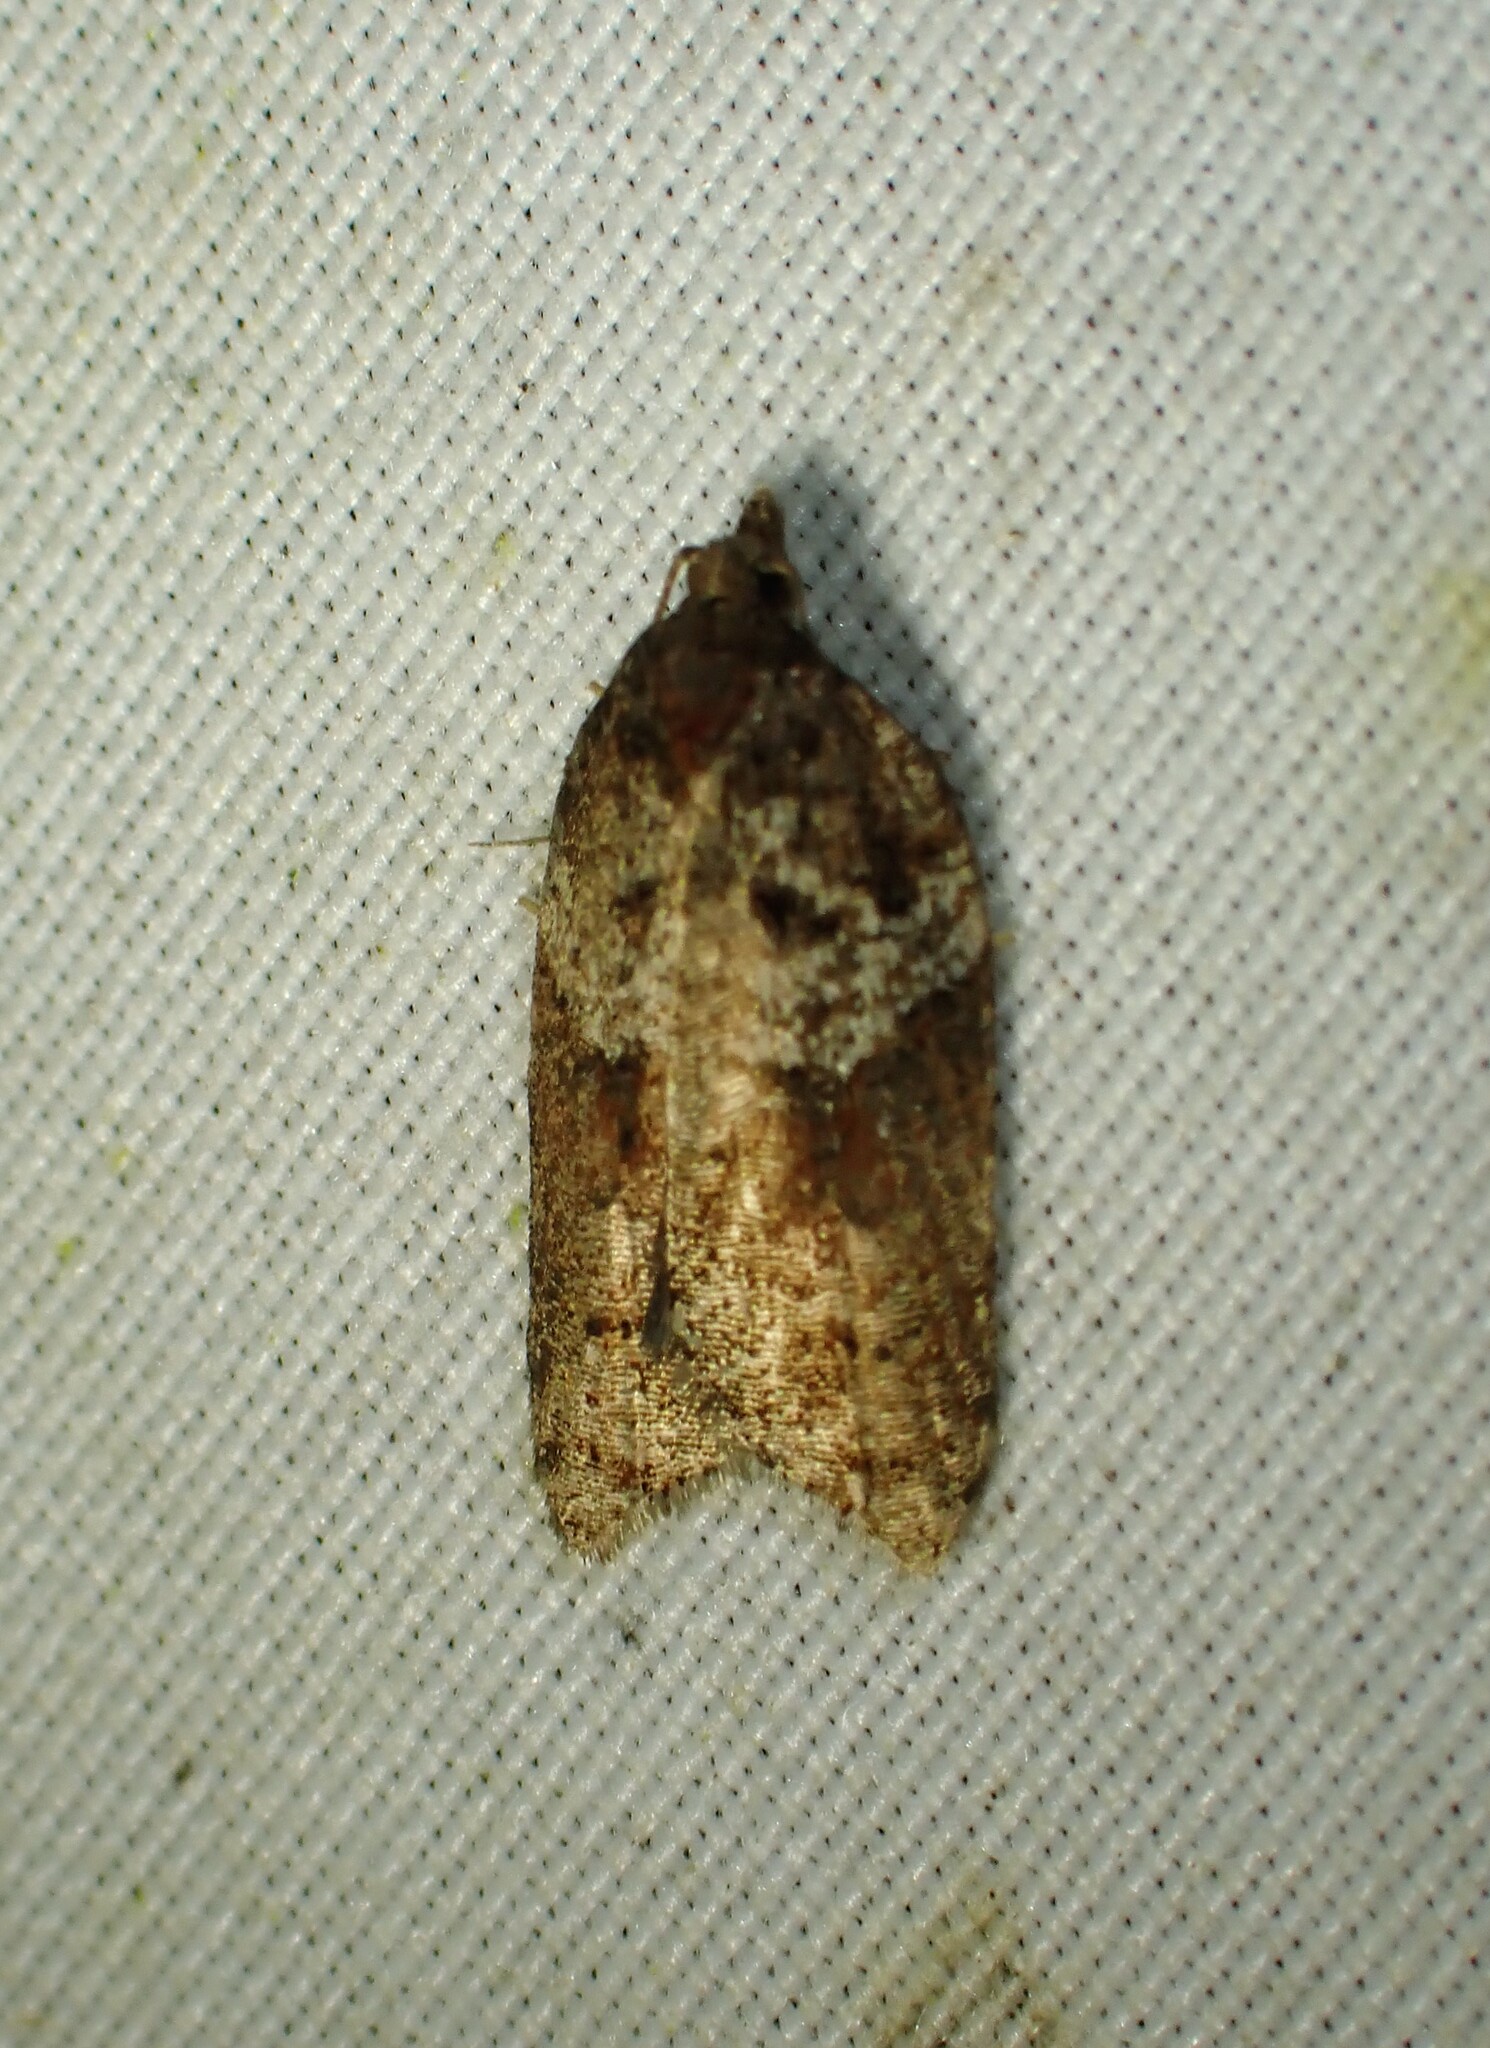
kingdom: Animalia
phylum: Arthropoda
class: Insecta
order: Lepidoptera
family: Tortricidae
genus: Acleris
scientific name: Acleris macdunnoughi
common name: Macdunnough's acleris
